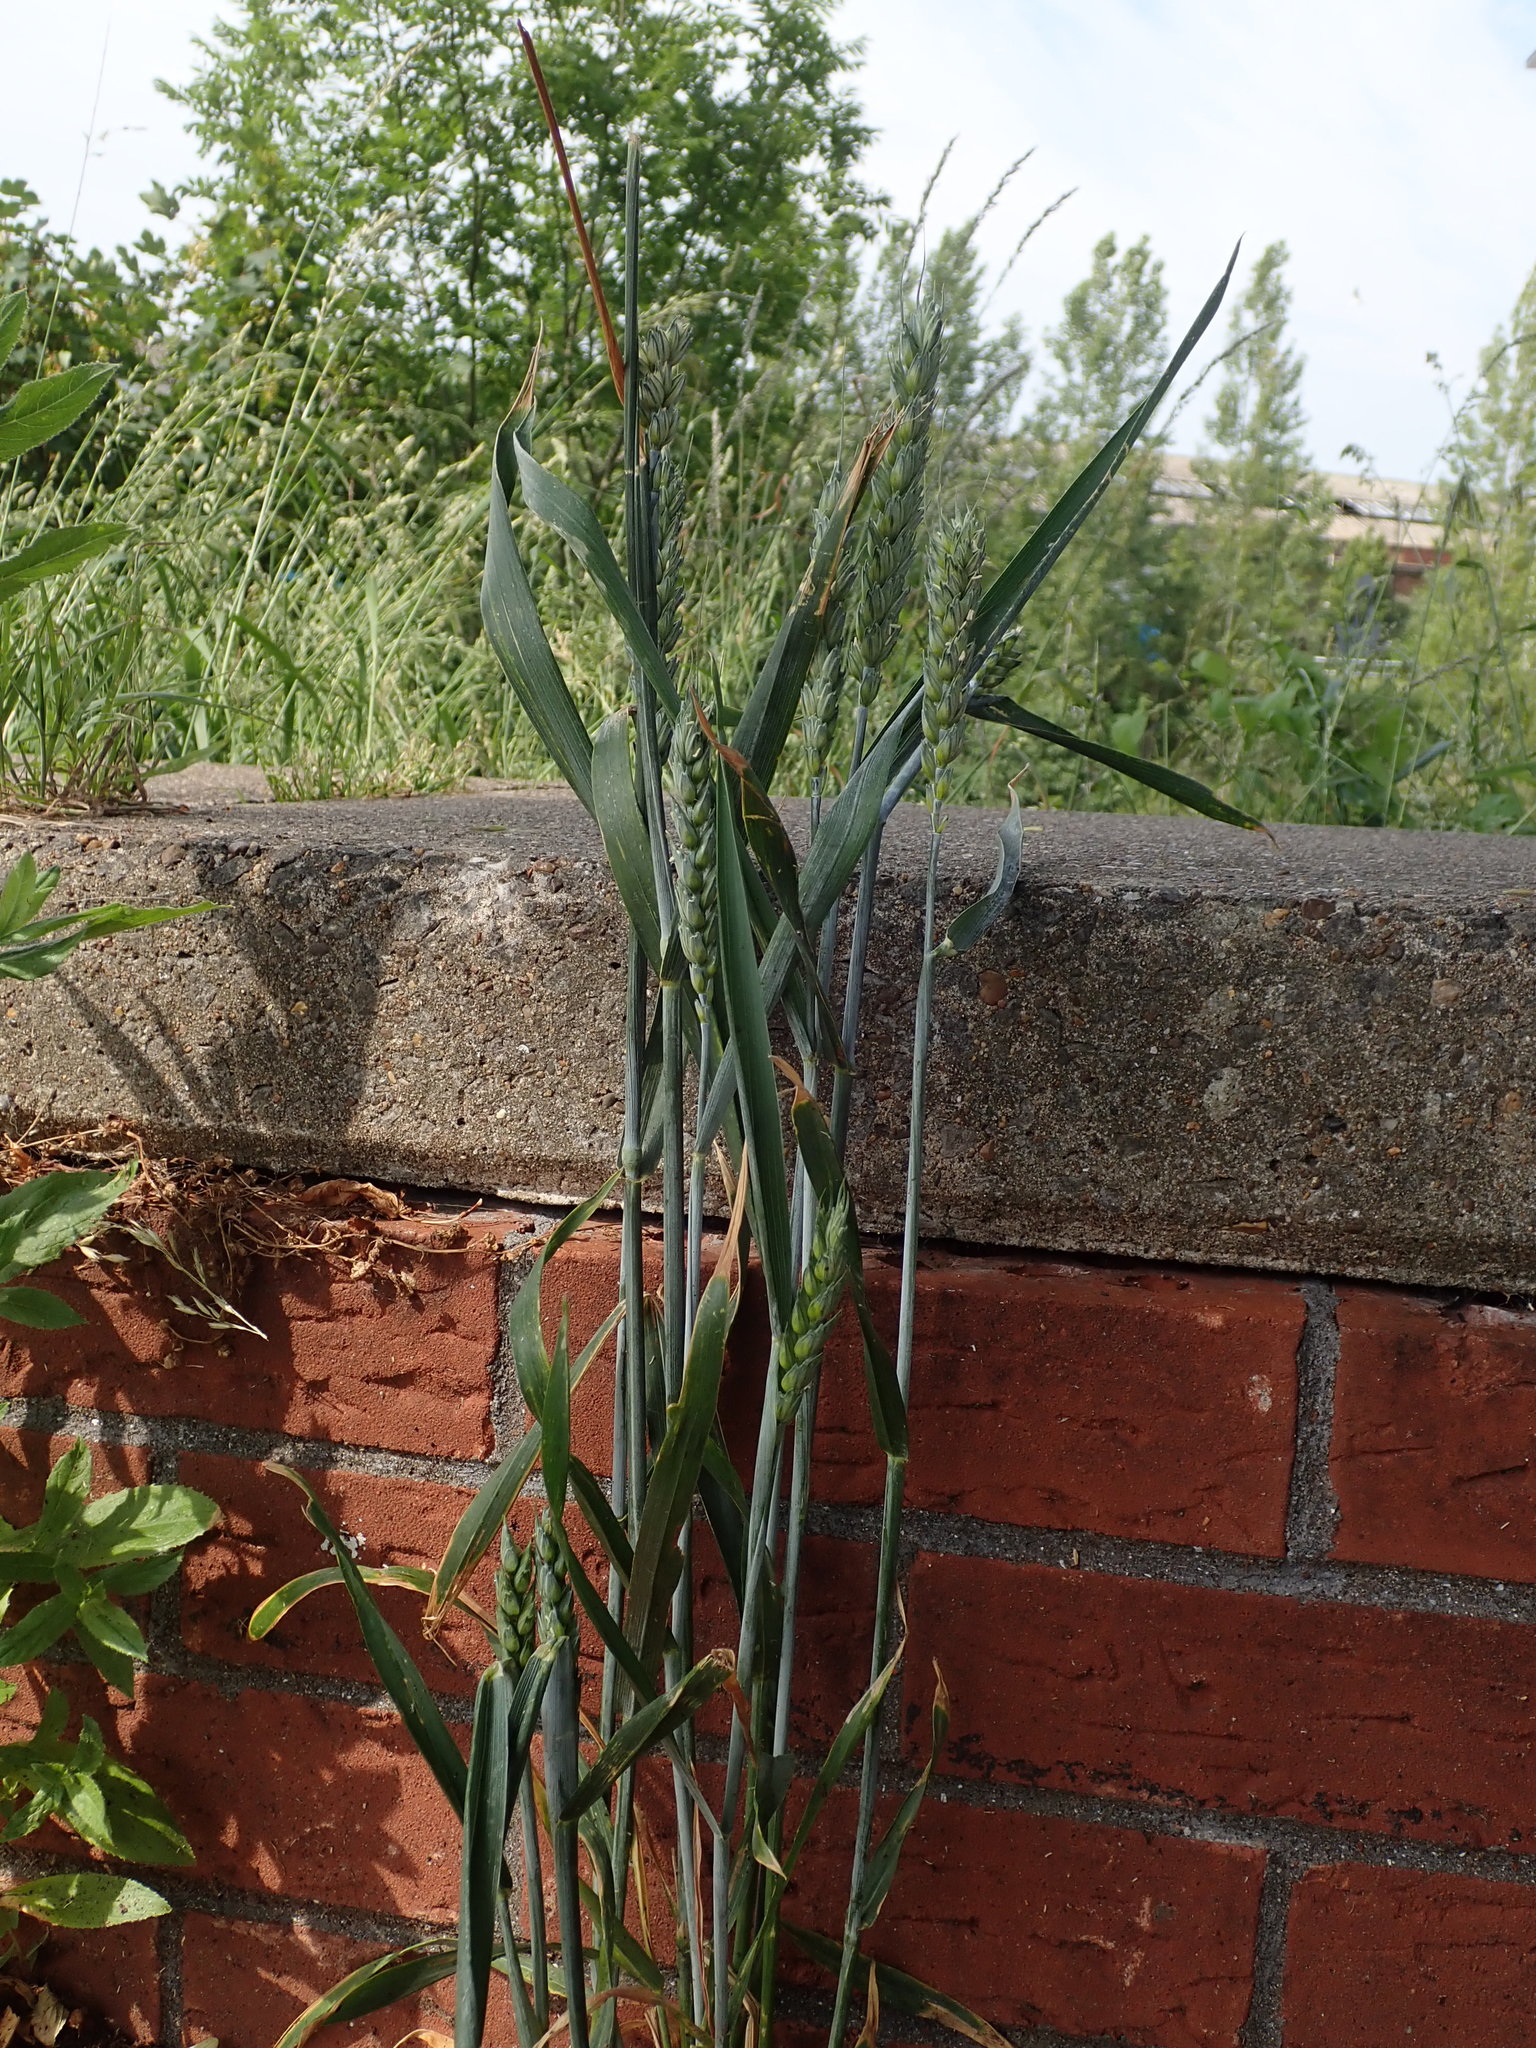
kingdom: Plantae
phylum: Tracheophyta
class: Liliopsida
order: Poales
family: Poaceae
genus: Triticum
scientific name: Triticum aestivum
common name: Common wheat
